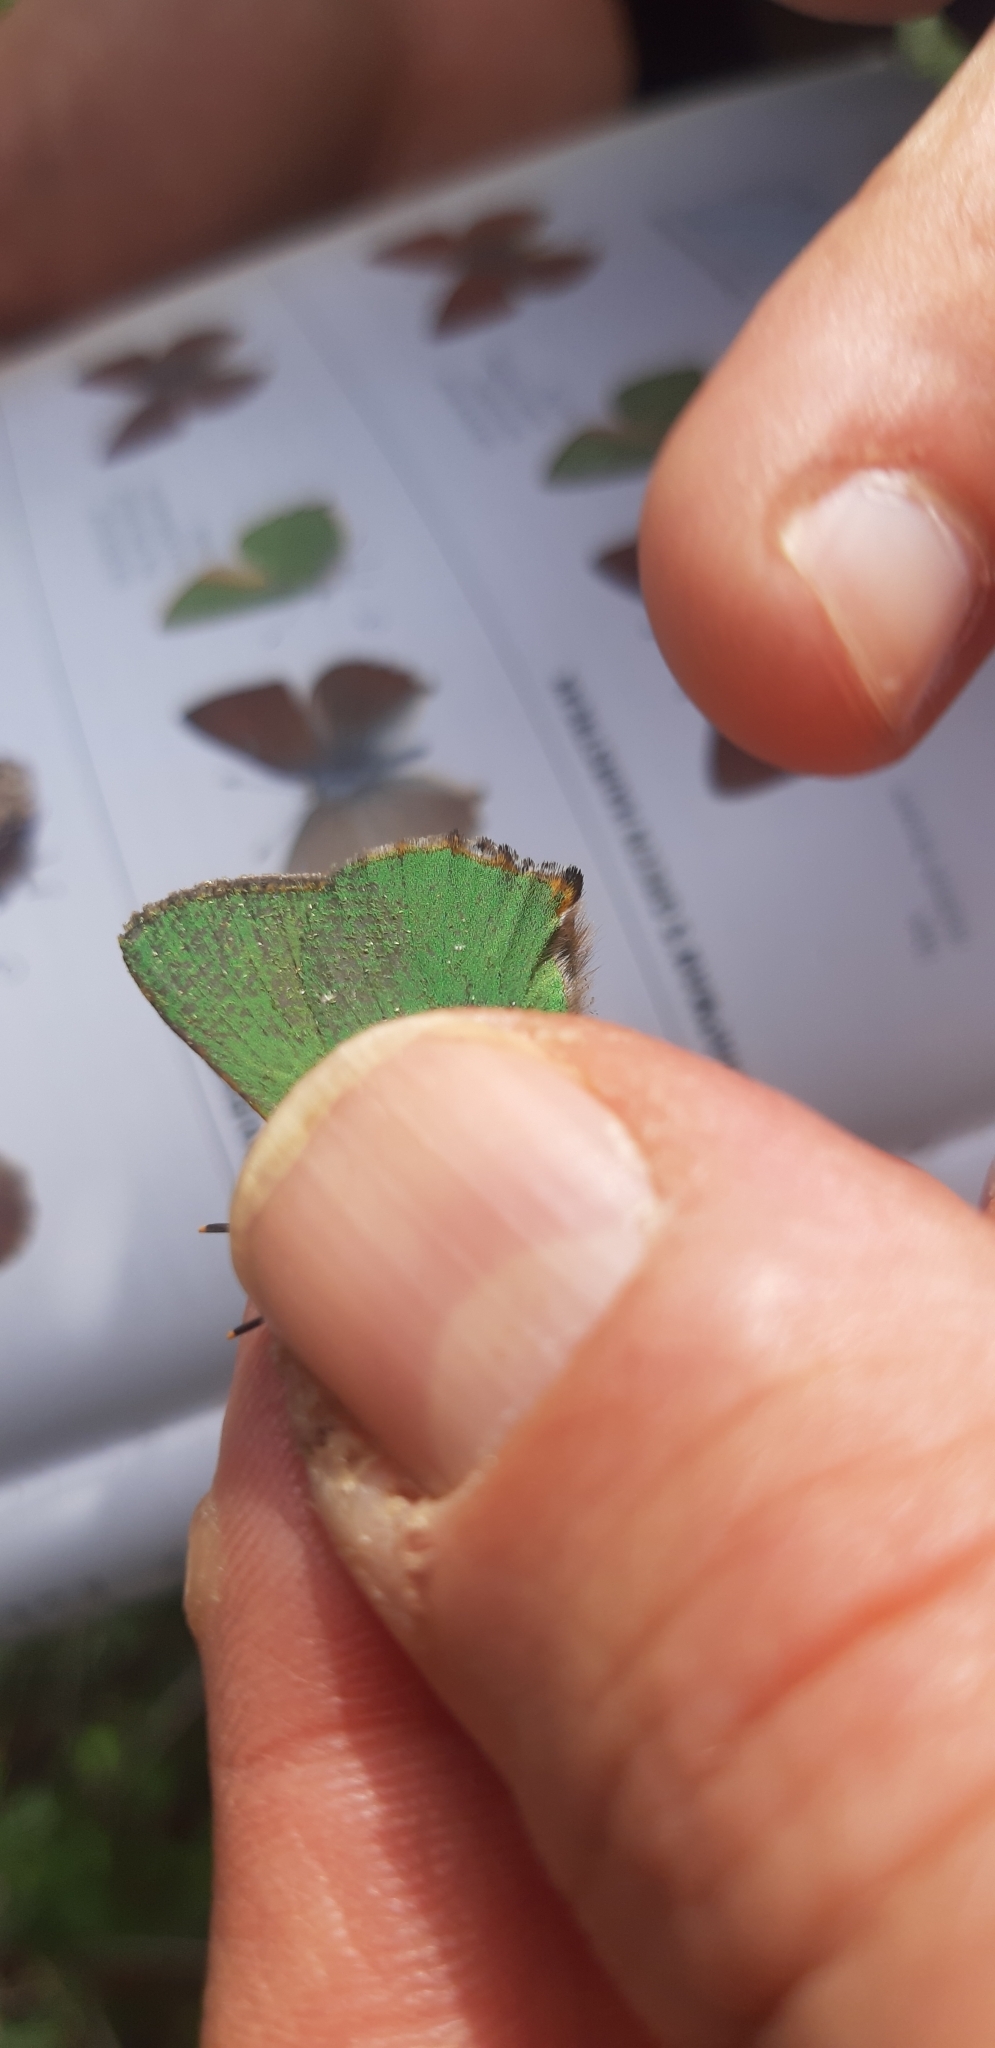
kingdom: Animalia
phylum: Arthropoda
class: Insecta
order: Lepidoptera
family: Lycaenidae
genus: Callophrys
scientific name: Callophrys rubi
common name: Green hairstreak
